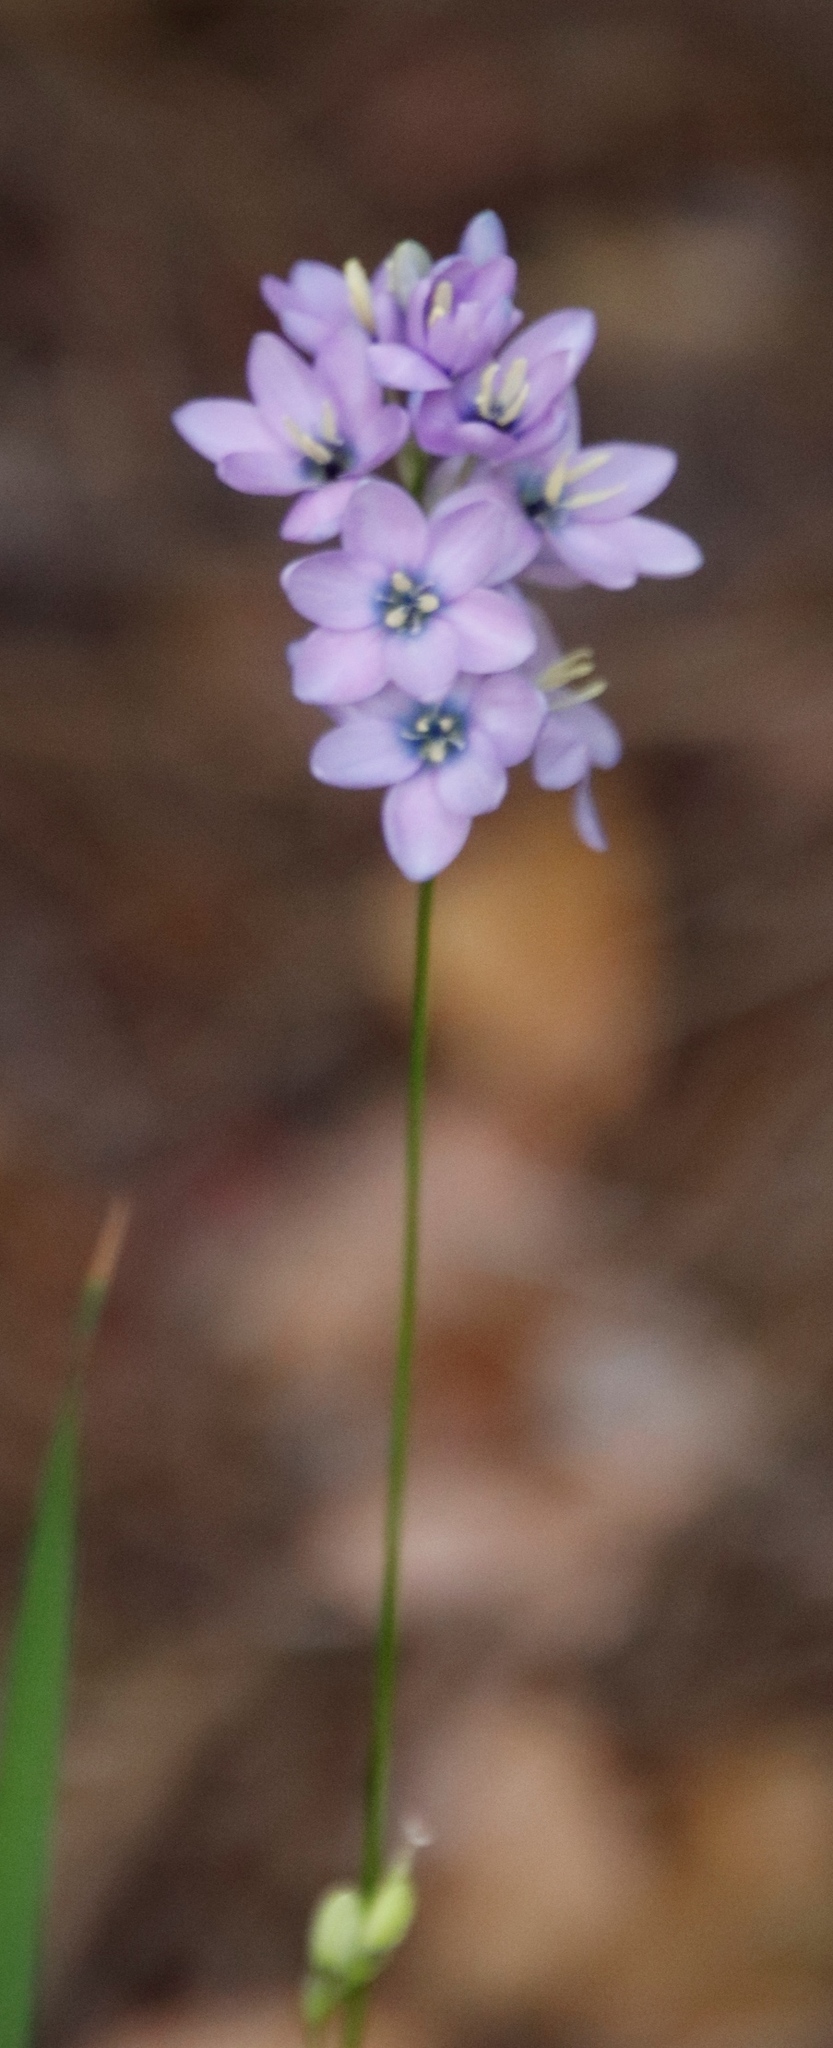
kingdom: Plantae
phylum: Tracheophyta
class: Liliopsida
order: Asparagales
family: Iridaceae
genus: Ixia
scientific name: Ixia polystachya
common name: White-and-yellow-flower cornlily
